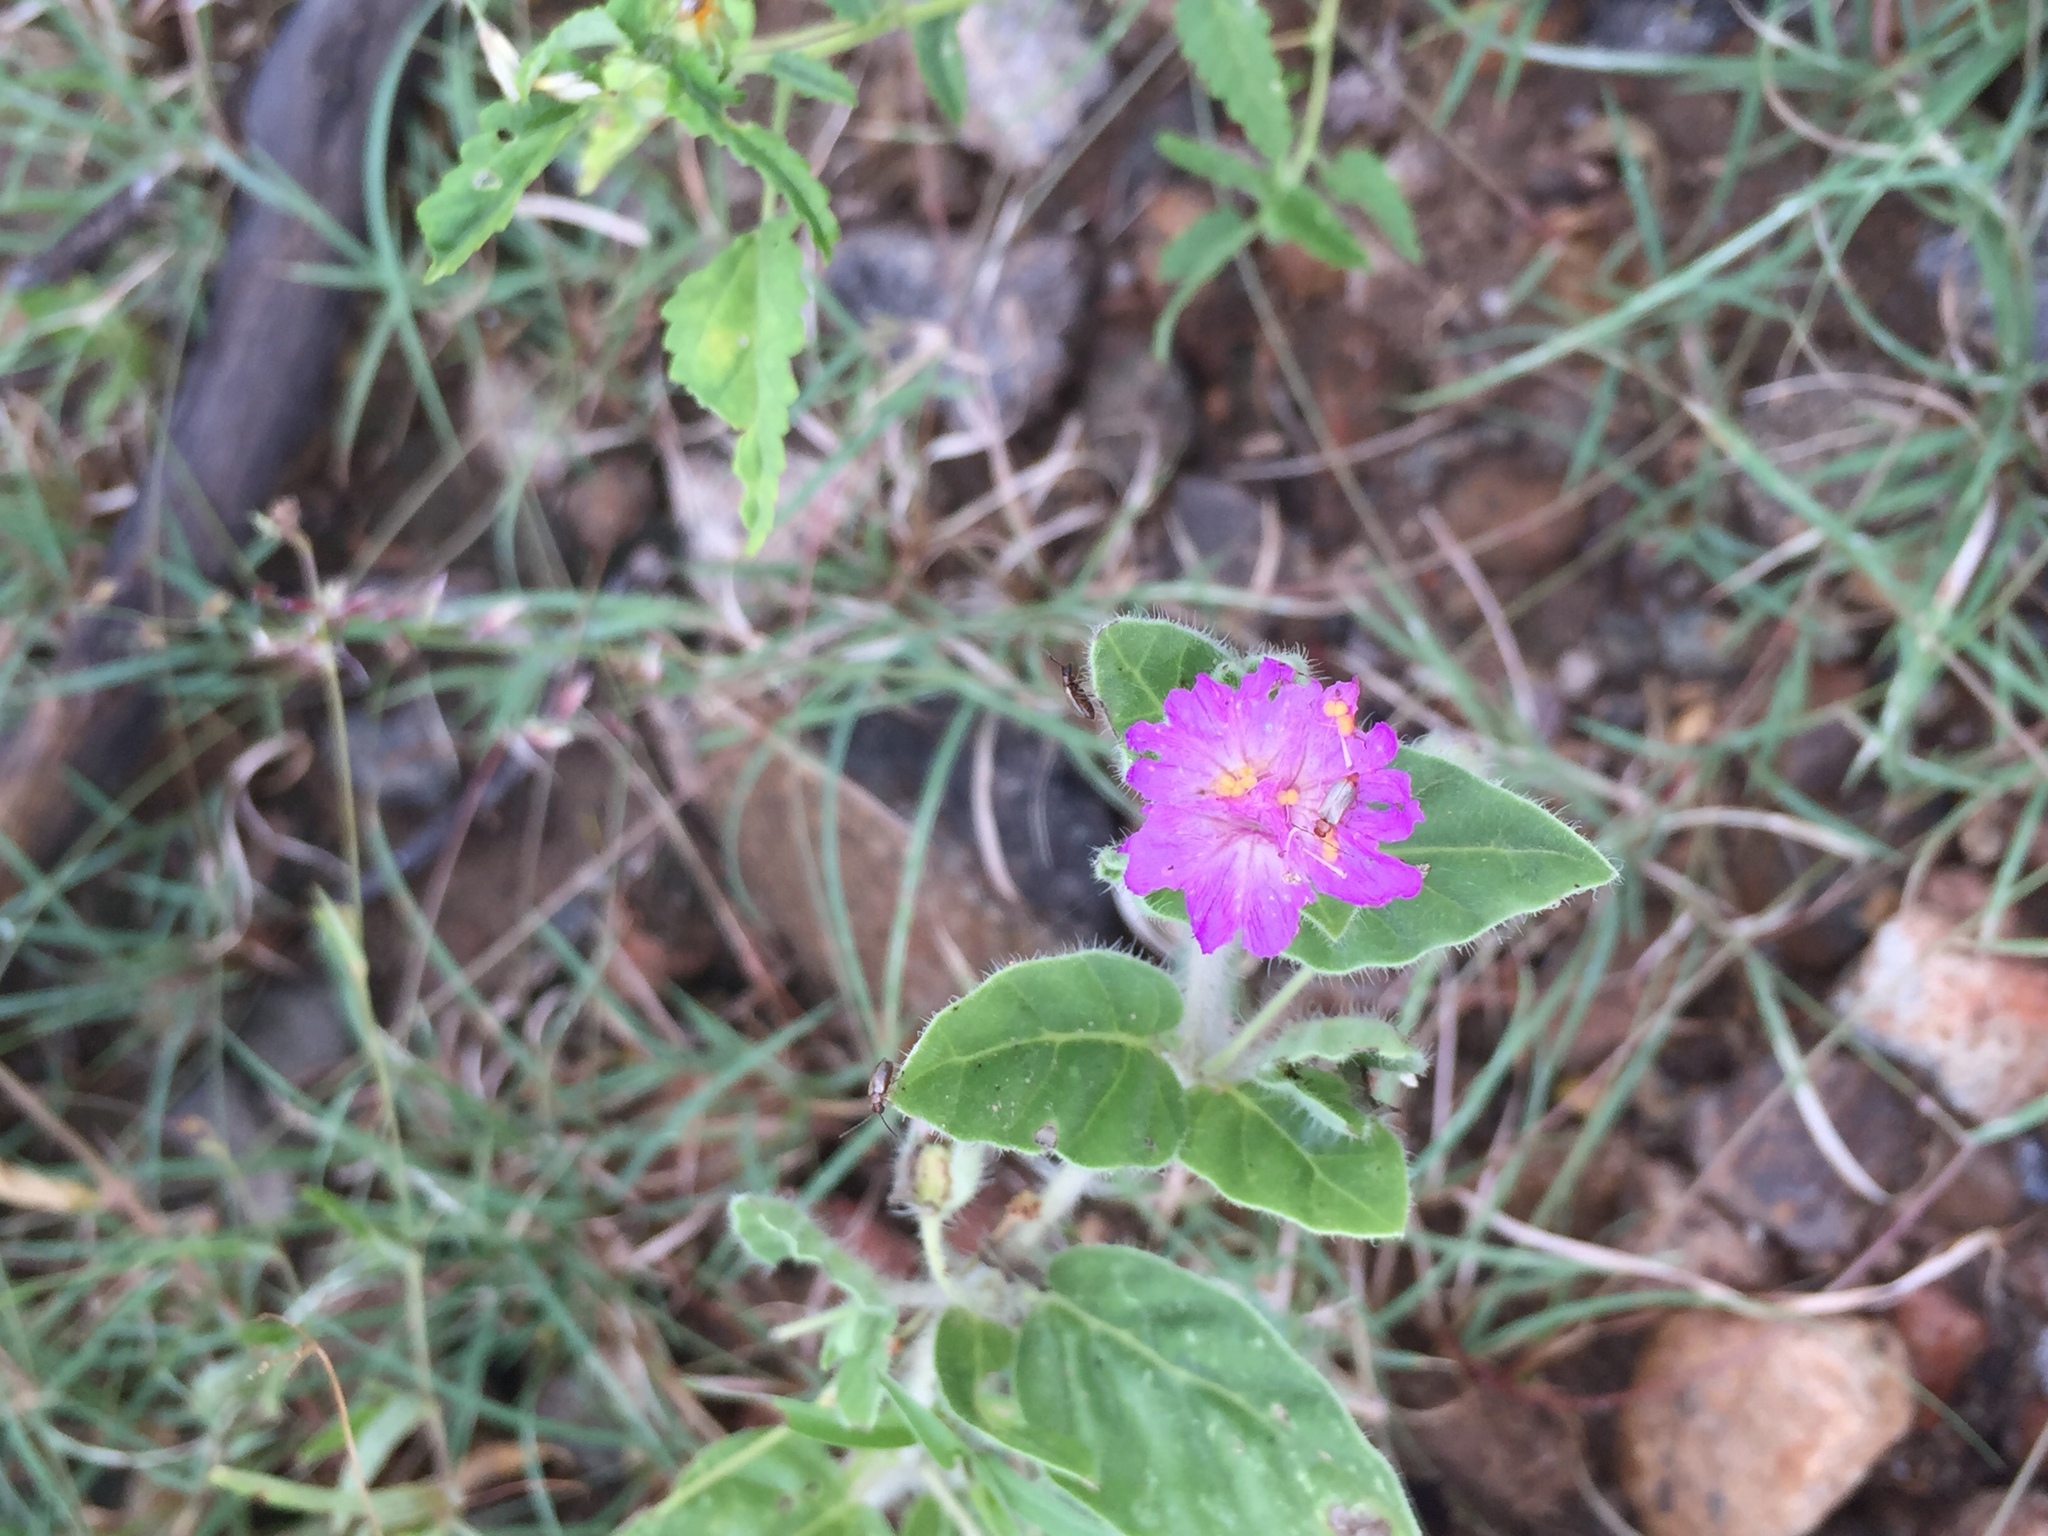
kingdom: Plantae
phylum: Tracheophyta
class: Magnoliopsida
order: Caryophyllales
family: Nyctaginaceae
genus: Allionia
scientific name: Allionia incarnata
